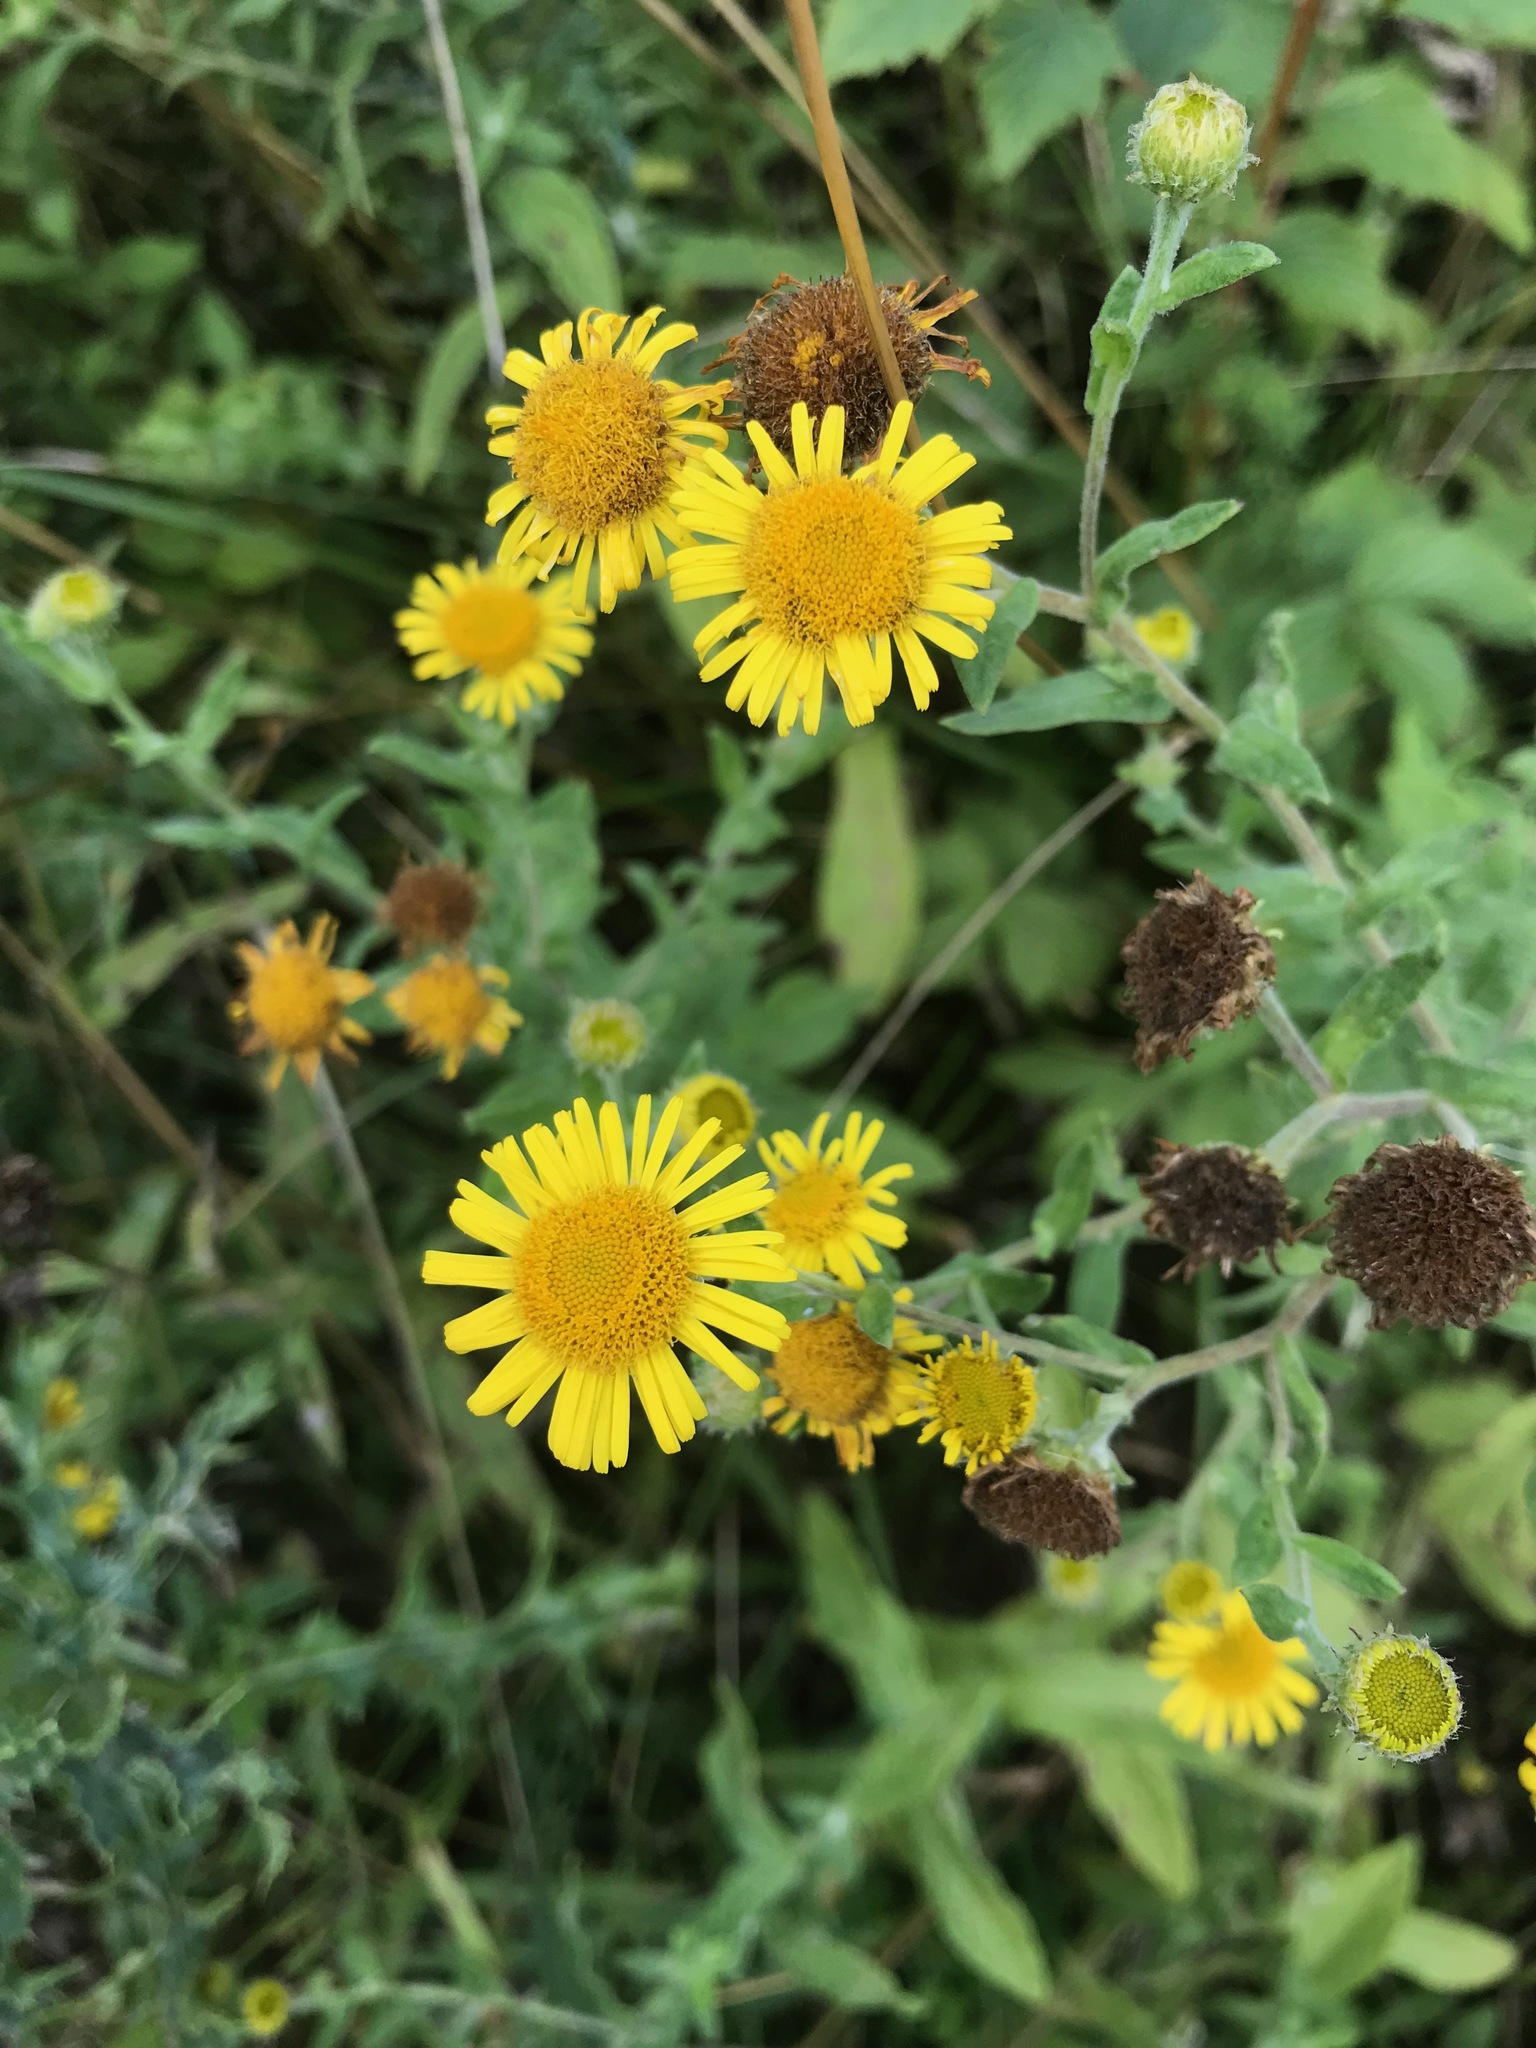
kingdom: Plantae
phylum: Tracheophyta
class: Magnoliopsida
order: Asterales
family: Asteraceae
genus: Pulicaria
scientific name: Pulicaria dysenterica
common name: Common fleabane
